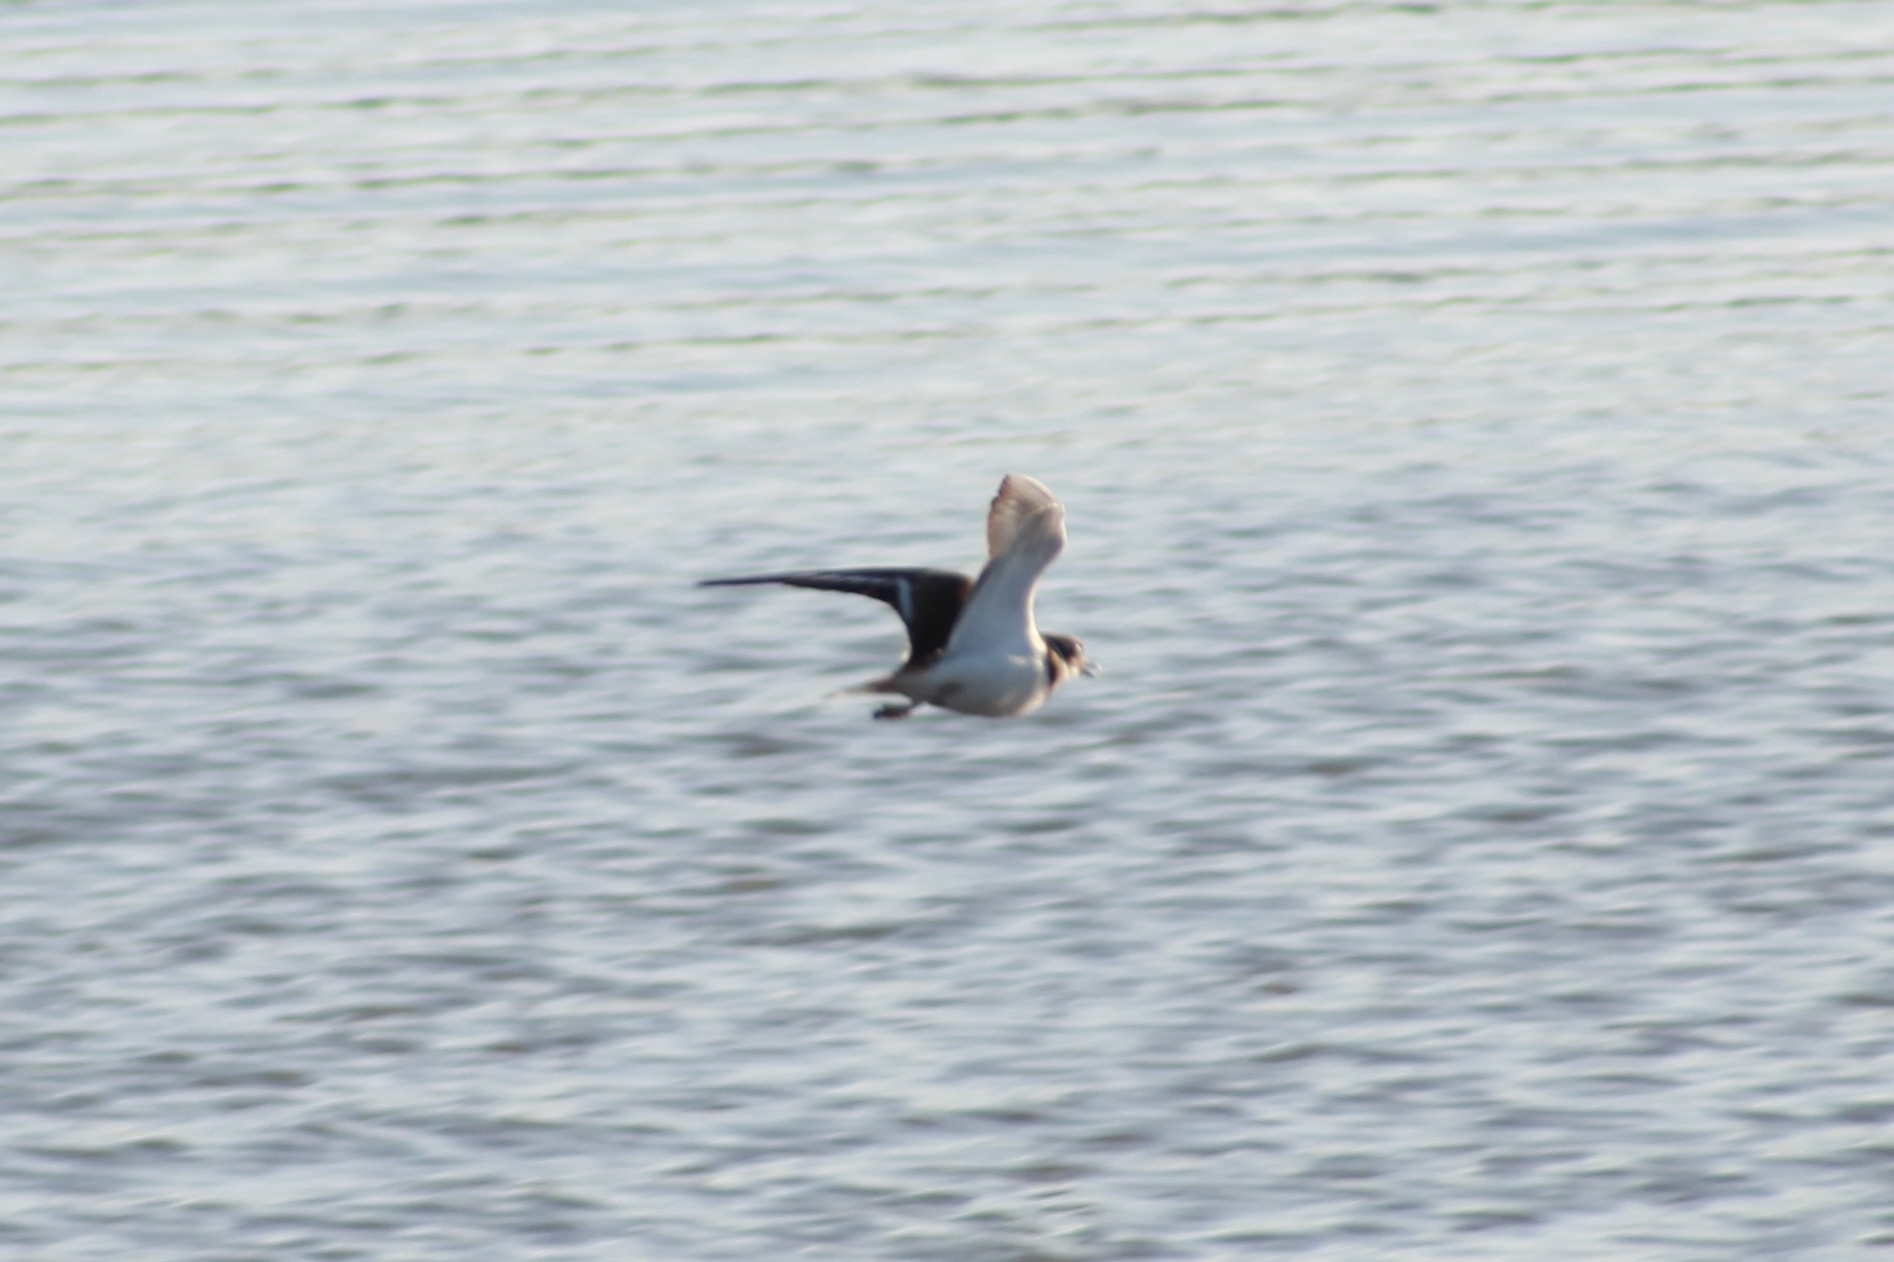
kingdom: Animalia
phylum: Chordata
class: Aves
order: Charadriiformes
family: Charadriidae
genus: Charadrius
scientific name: Charadrius vociferus
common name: Killdeer
